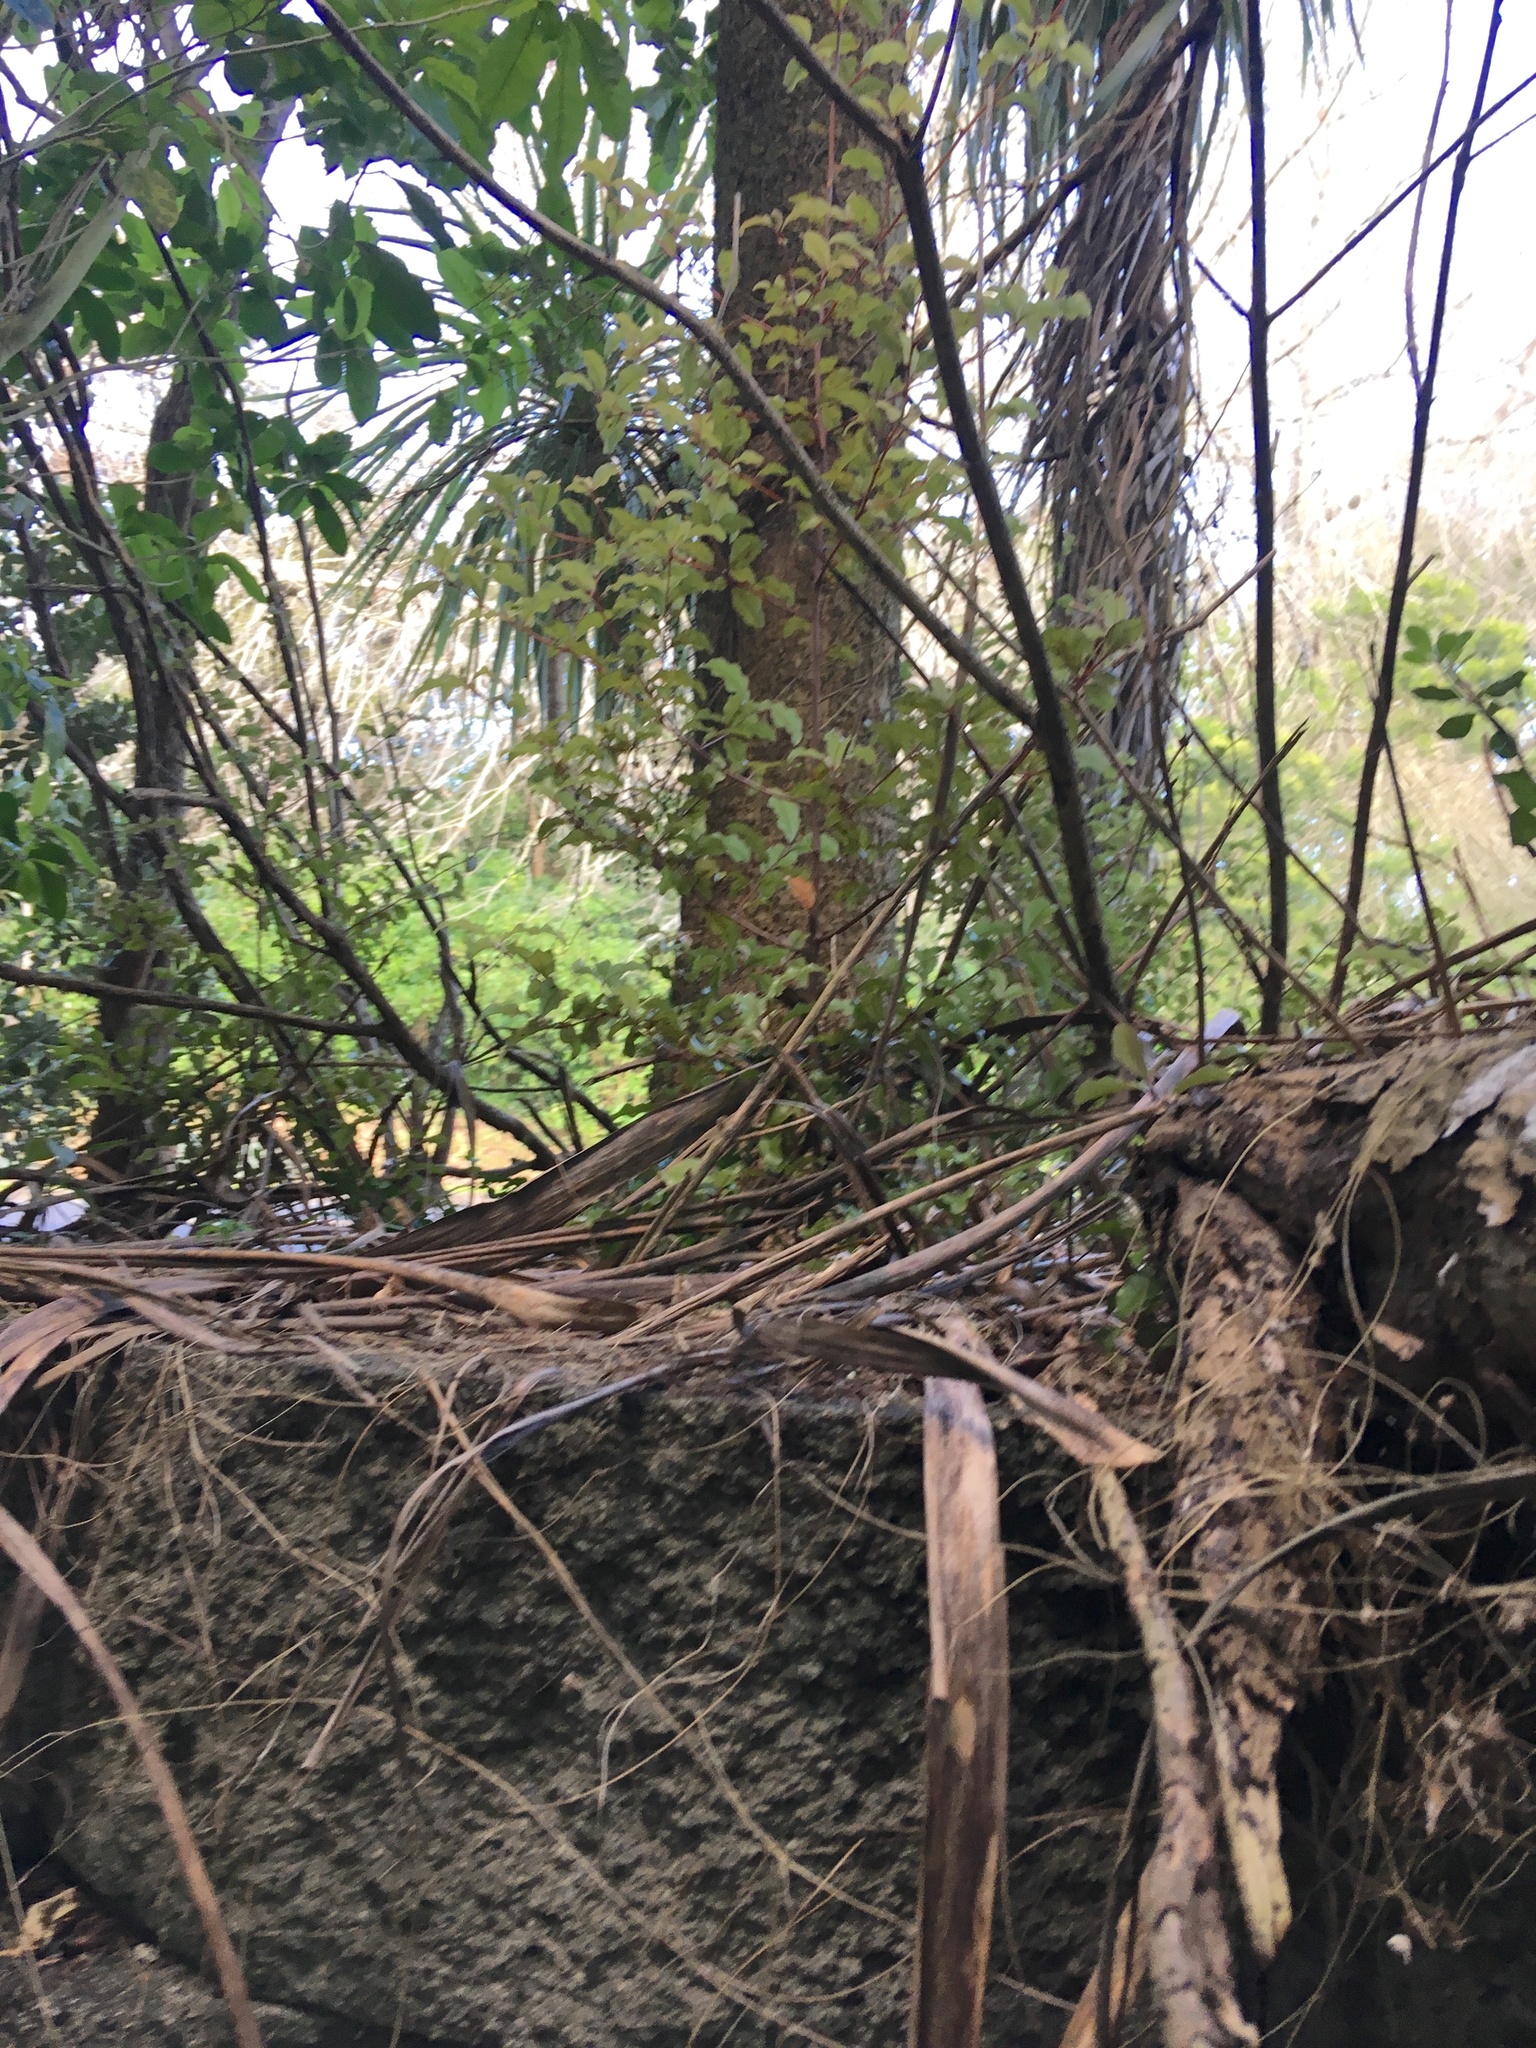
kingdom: Plantae
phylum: Tracheophyta
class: Liliopsida
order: Asparagales
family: Asparagaceae
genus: Cordyline
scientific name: Cordyline australis
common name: Cabbage-palm
